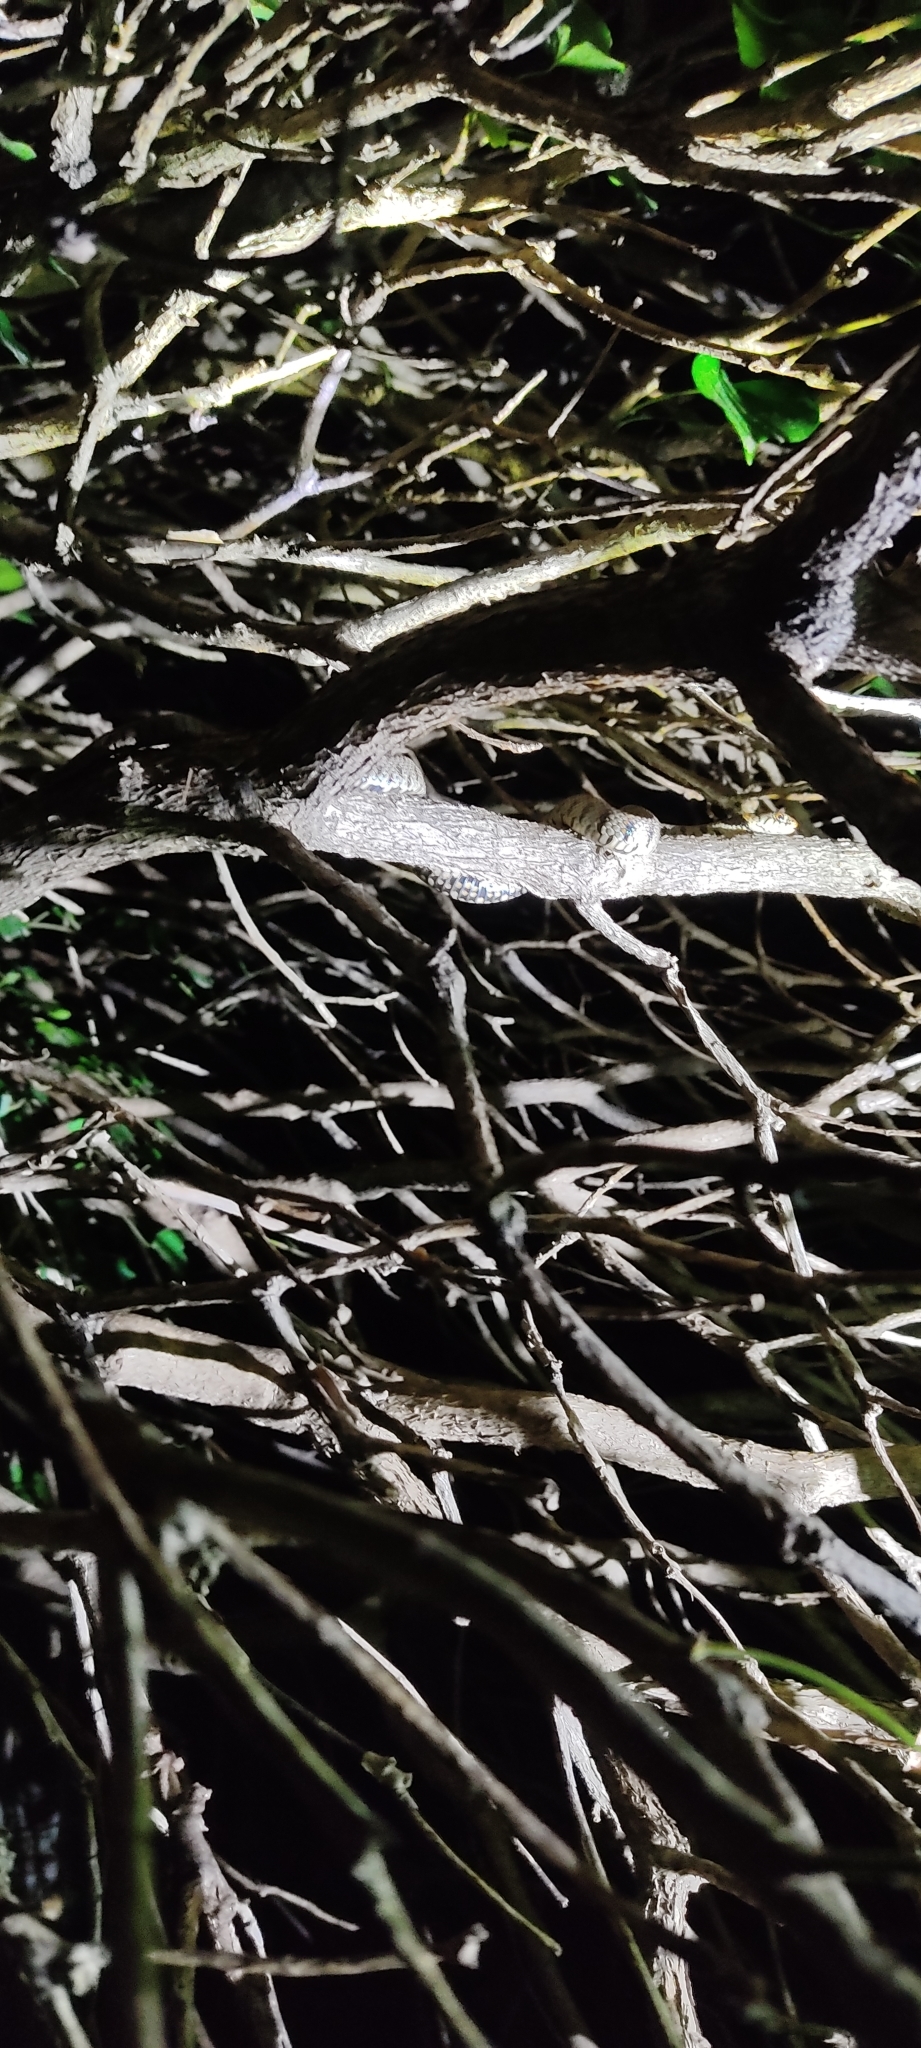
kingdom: Animalia
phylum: Chordata
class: Squamata
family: Colubridae
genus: Natrix
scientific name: Natrix helvetica
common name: Banded grass snake
